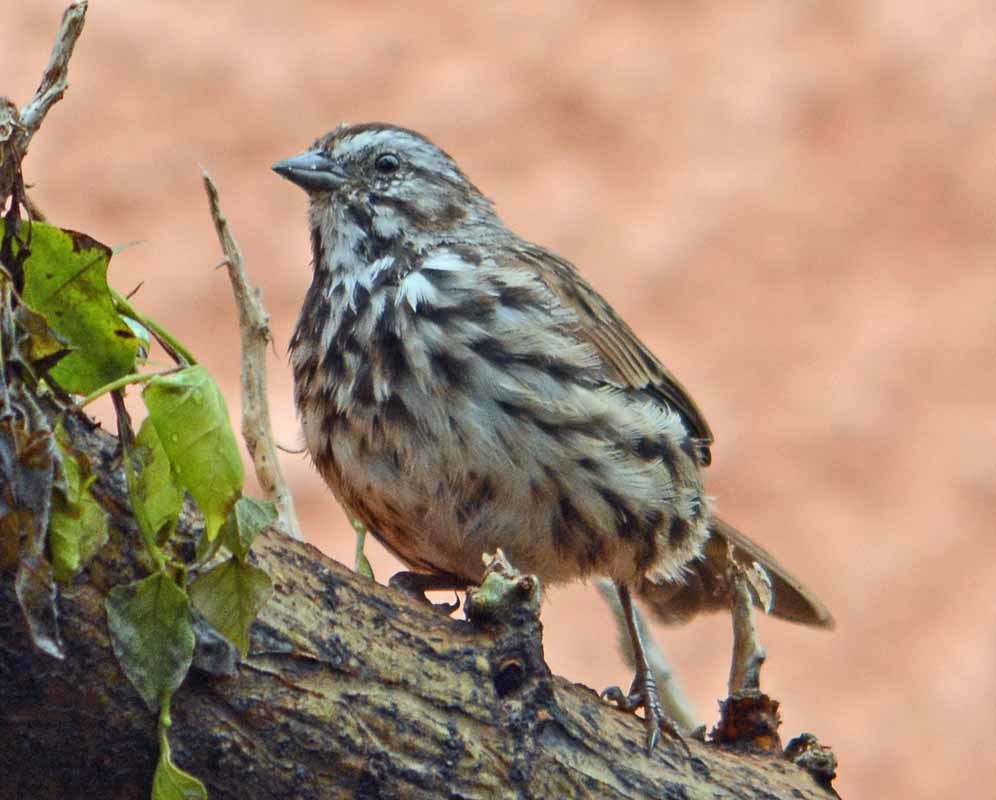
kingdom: Animalia
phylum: Chordata
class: Aves
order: Passeriformes
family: Passerellidae
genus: Melospiza
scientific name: Melospiza melodia
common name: Song sparrow
